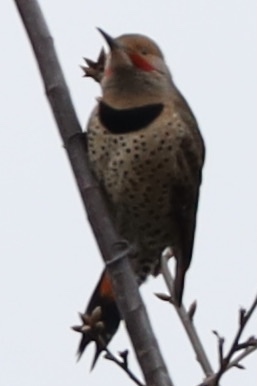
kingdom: Animalia
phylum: Chordata
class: Aves
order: Piciformes
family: Picidae
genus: Colaptes
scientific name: Colaptes auratus
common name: Northern flicker
